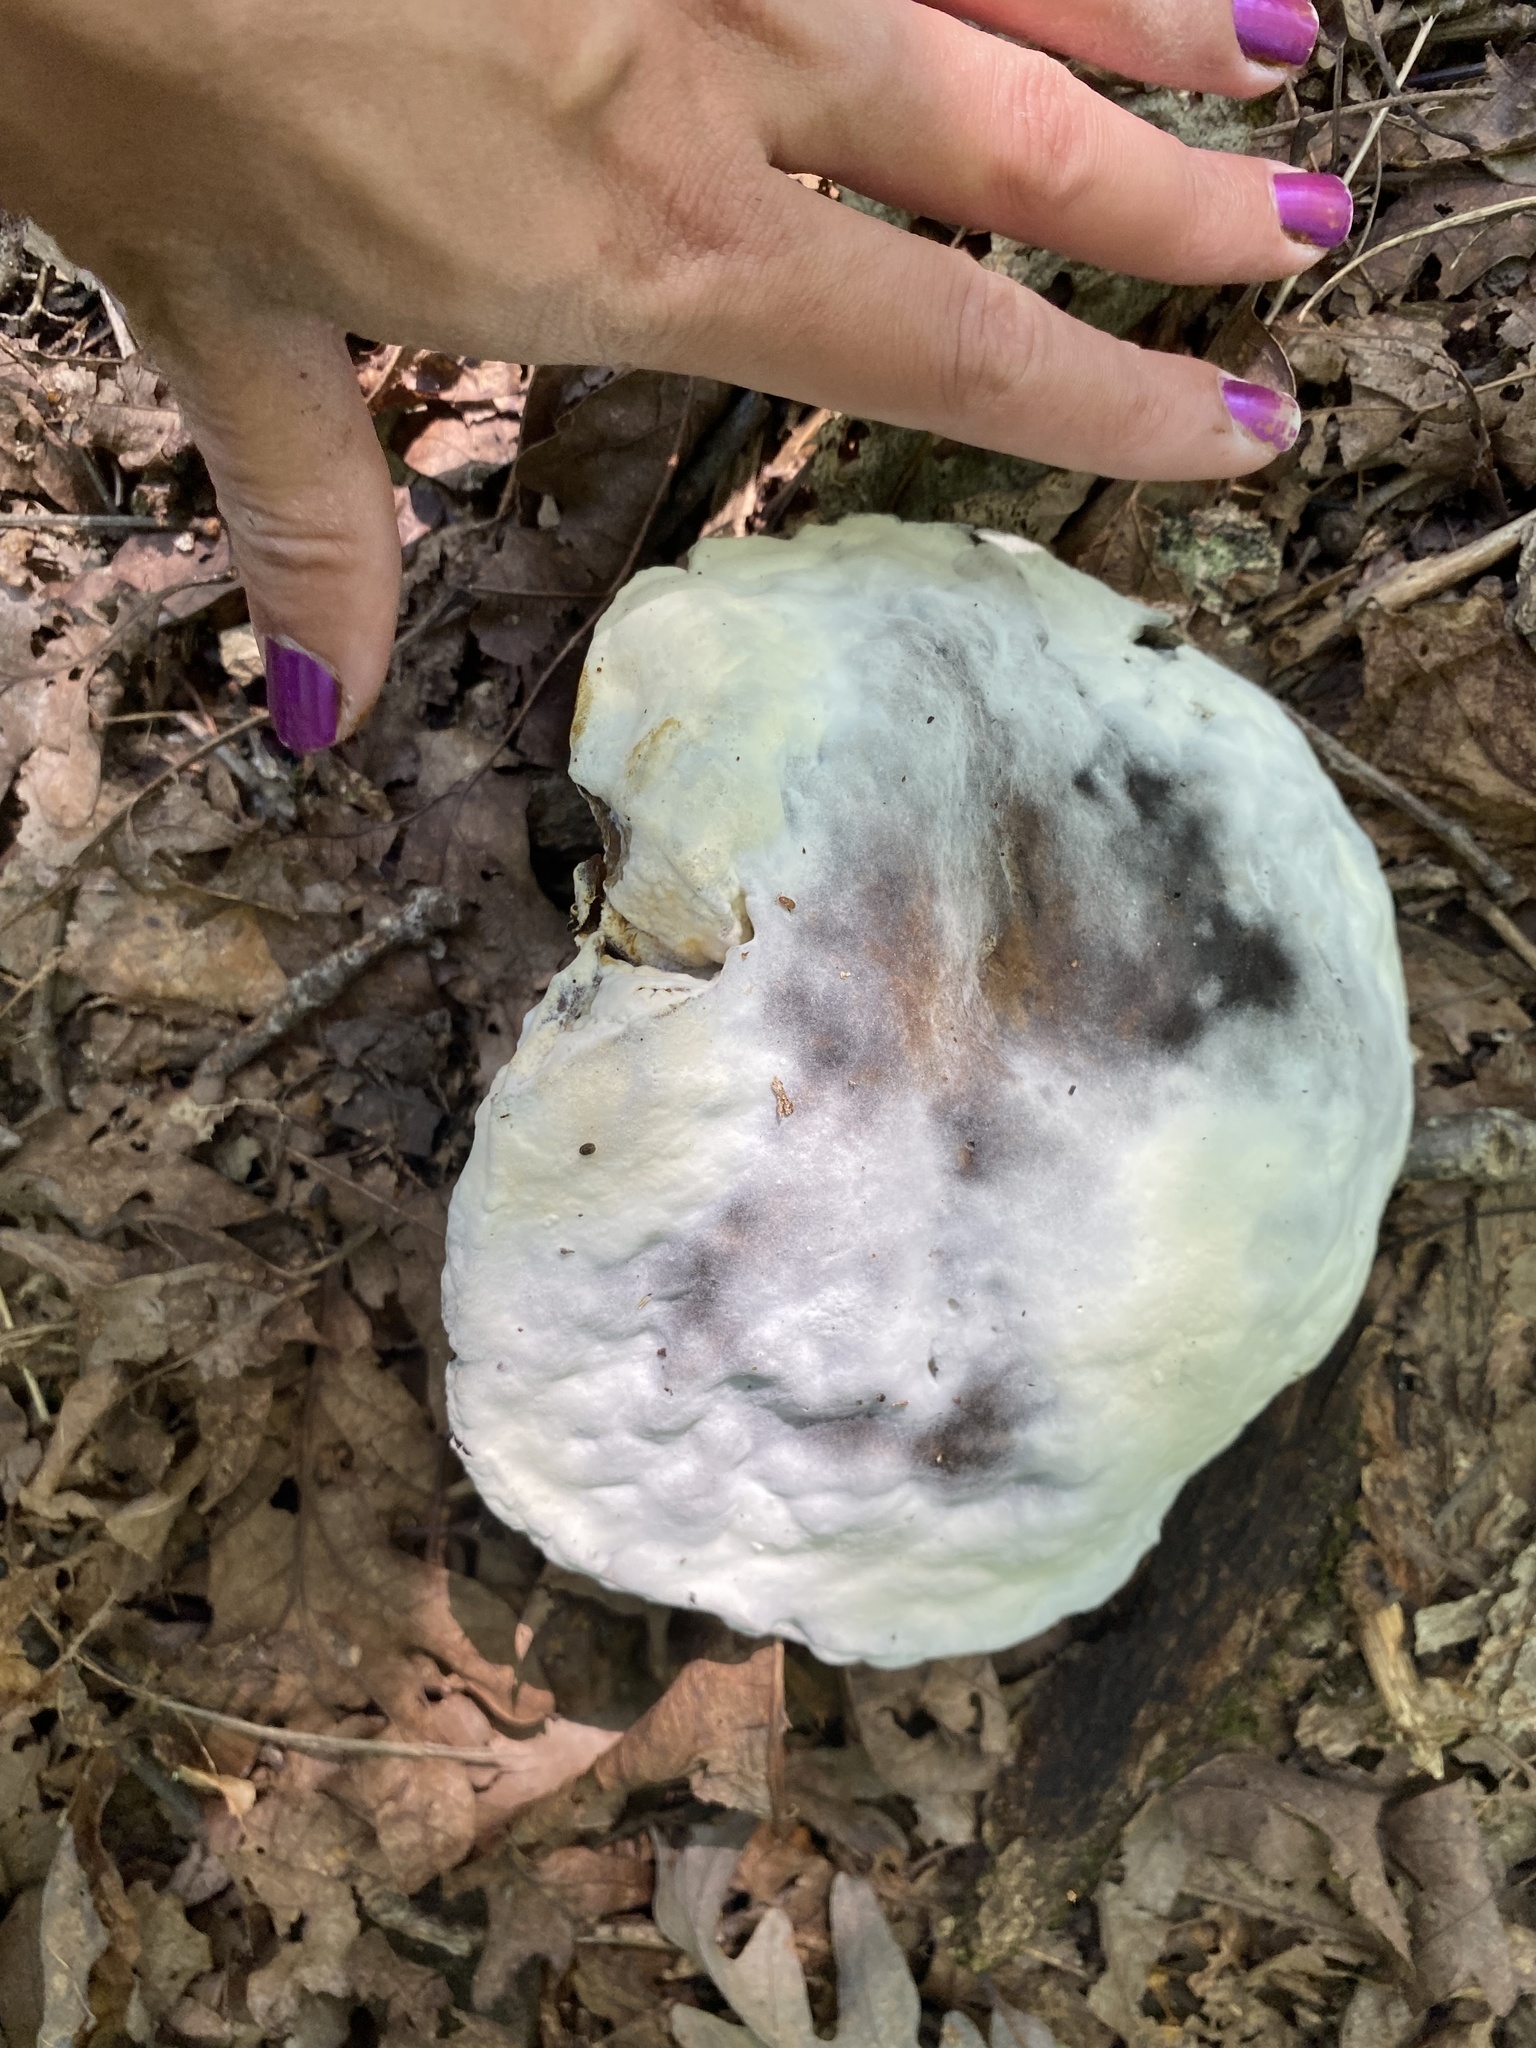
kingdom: Fungi
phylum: Ascomycota
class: Sordariomycetes
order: Hypocreales
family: Hypocreaceae
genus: Hypomyces
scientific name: Hypomyces chrysospermus
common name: Bolete mould
